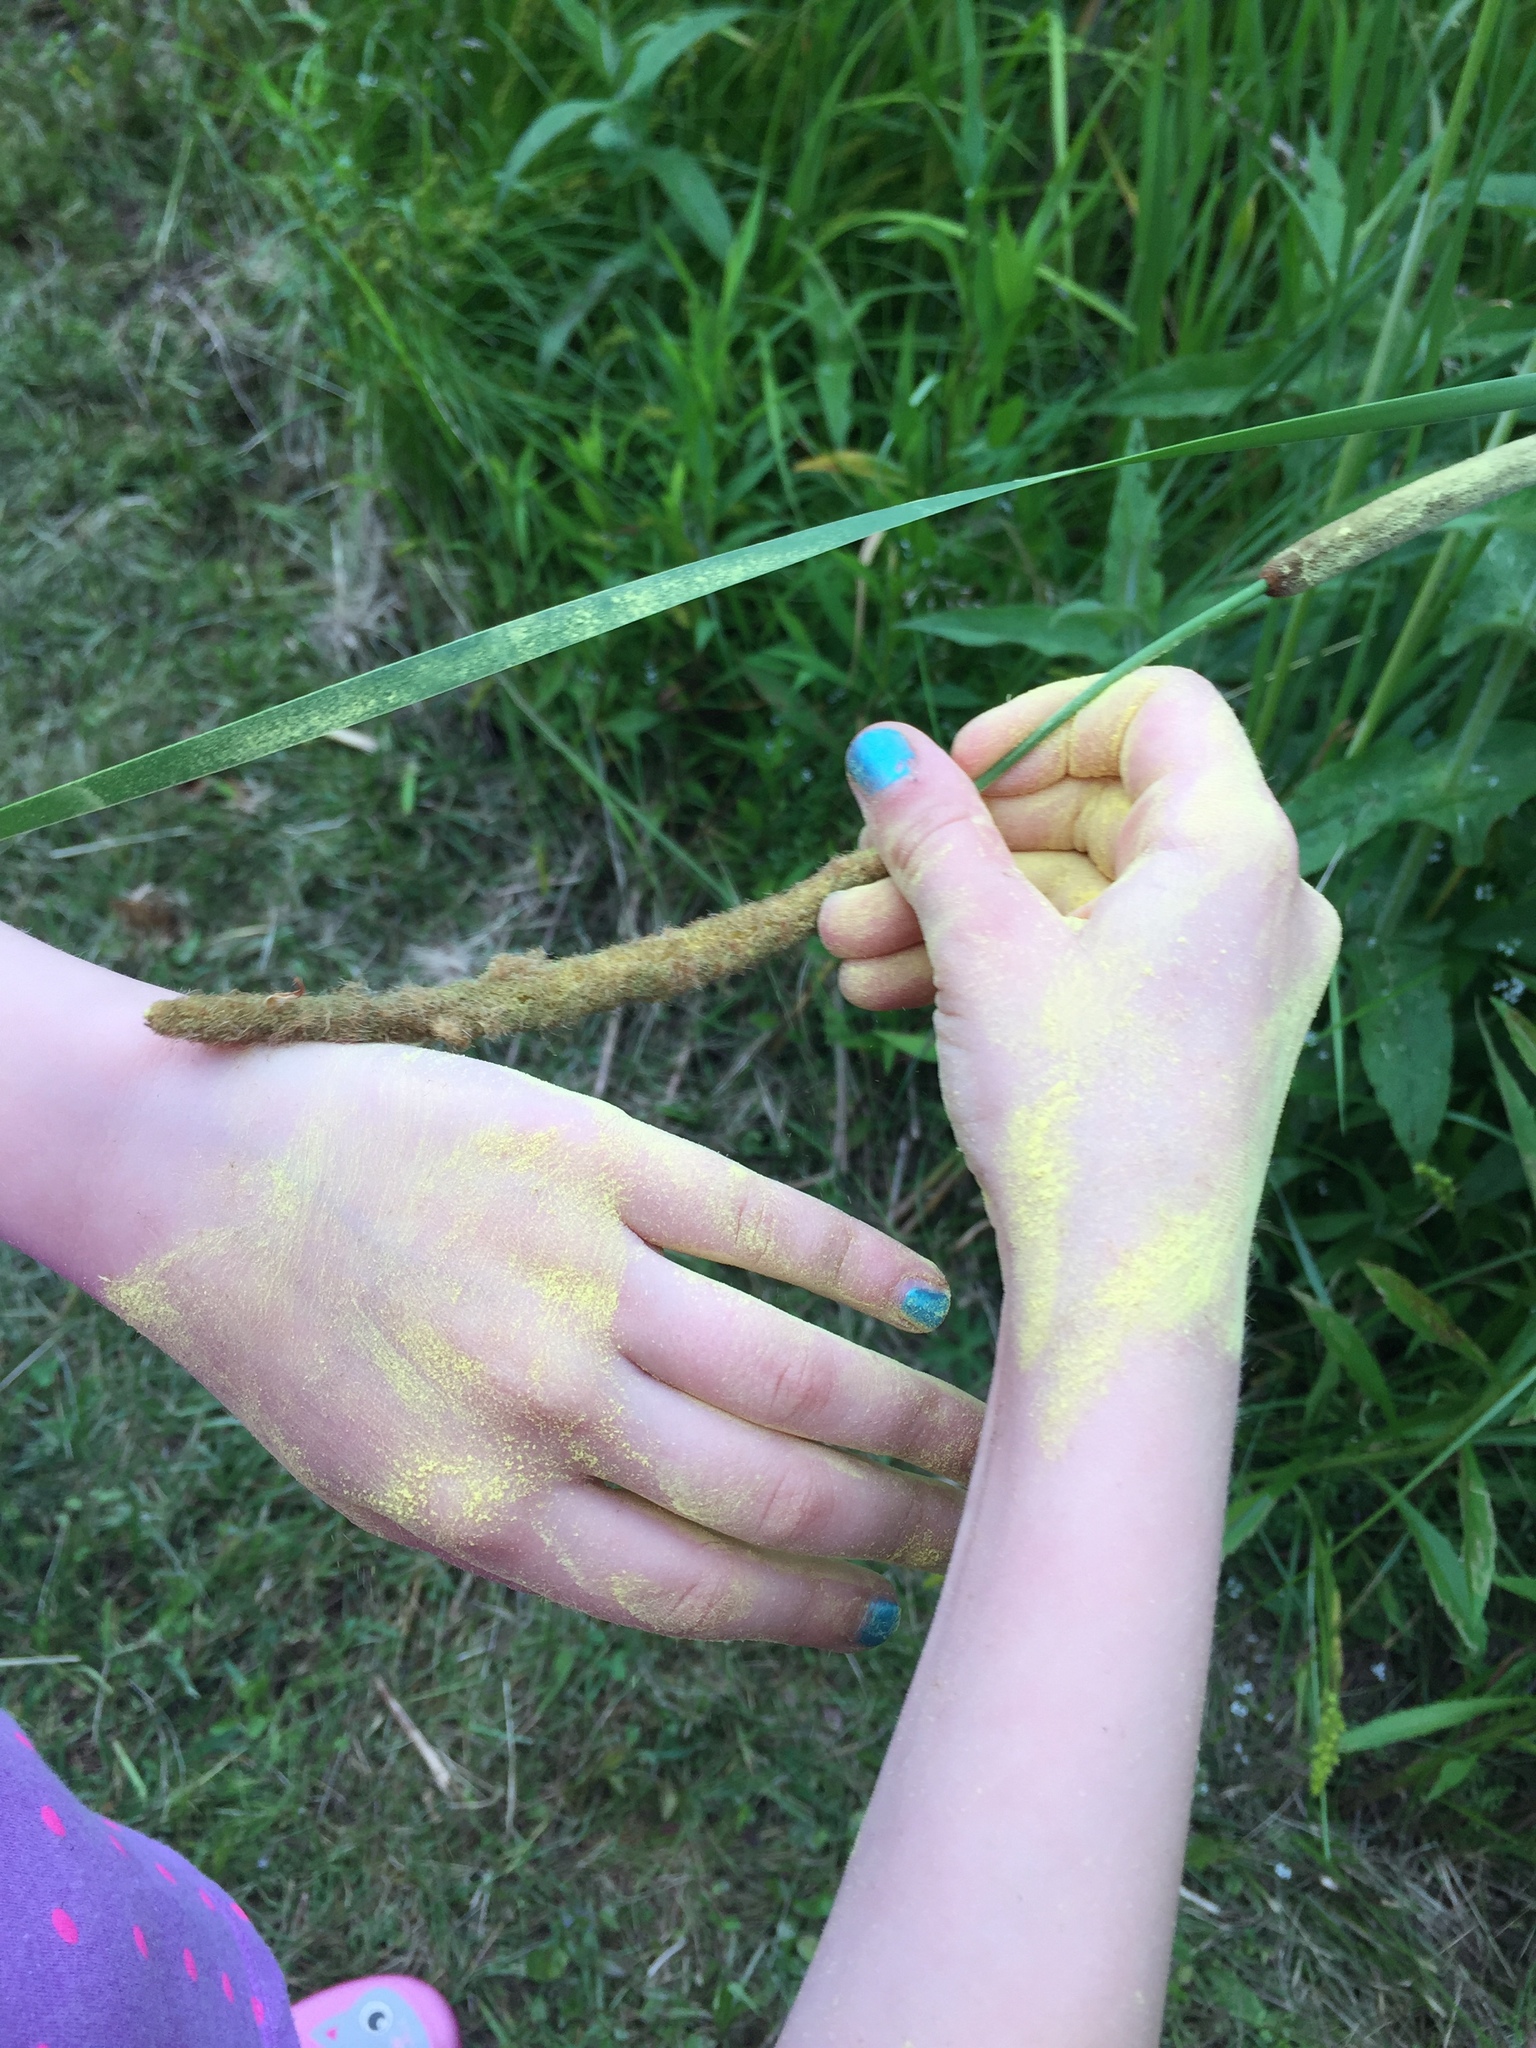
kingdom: Plantae
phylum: Tracheophyta
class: Liliopsida
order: Poales
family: Typhaceae
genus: Typha
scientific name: Typha angustifolia
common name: Lesser bulrush
